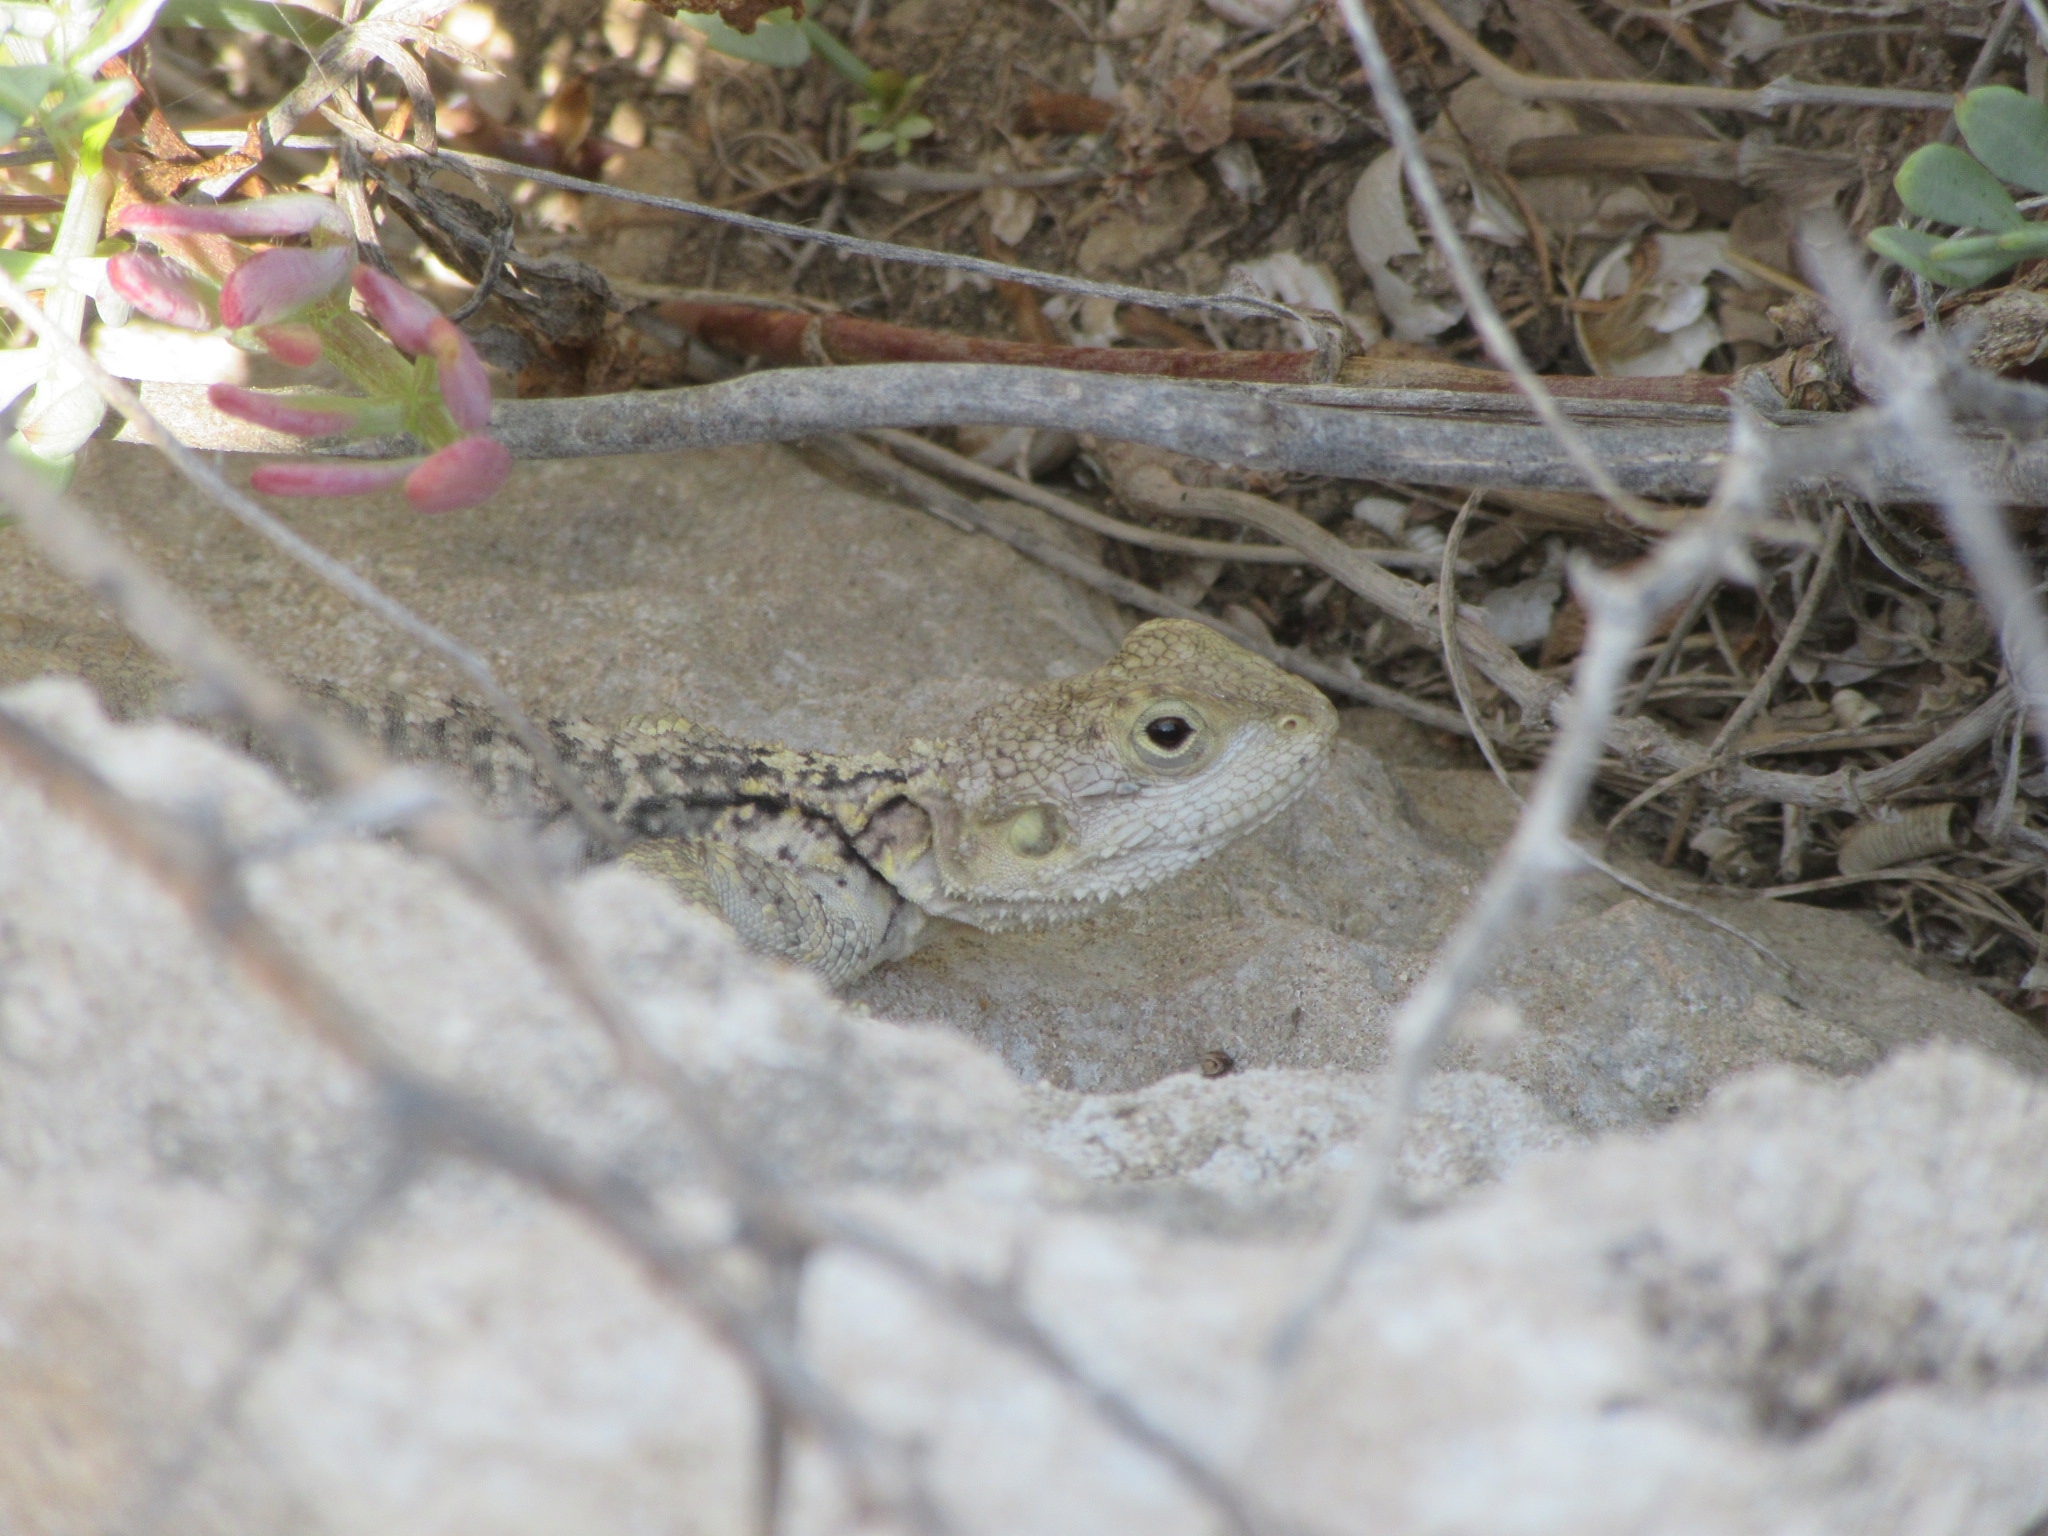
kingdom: Animalia
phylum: Chordata
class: Squamata
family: Agamidae
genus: Laudakia
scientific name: Laudakia
